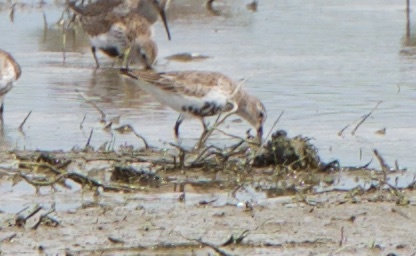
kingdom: Animalia
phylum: Chordata
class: Aves
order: Charadriiformes
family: Scolopacidae
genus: Calidris
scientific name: Calidris alpina
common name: Dunlin
